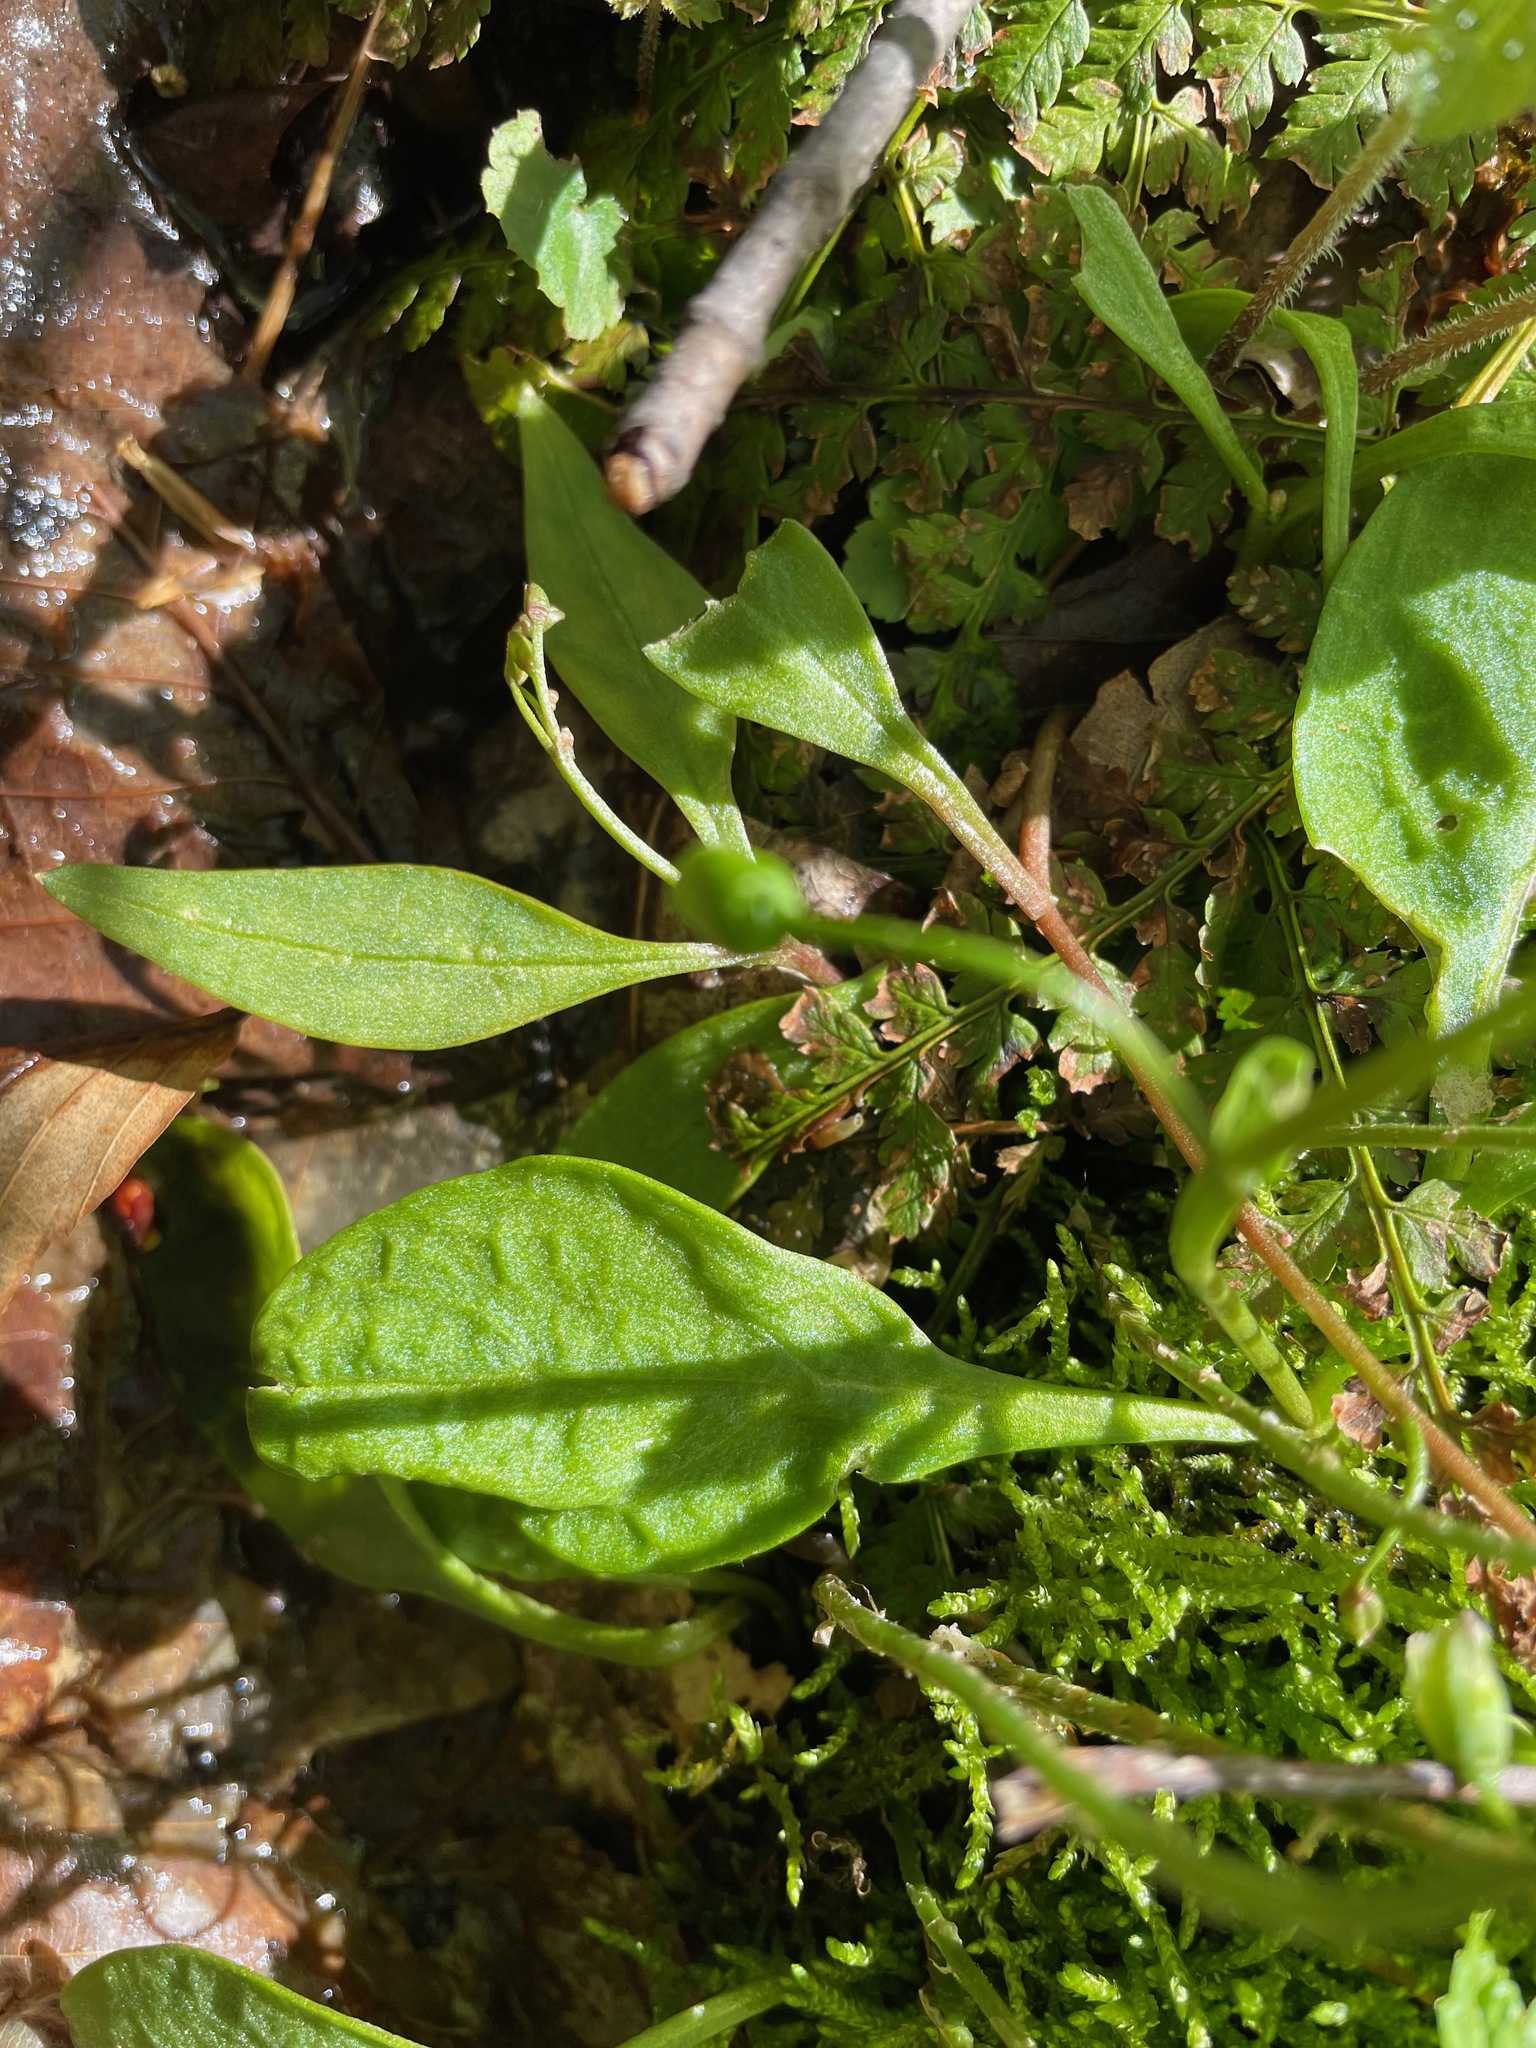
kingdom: Plantae
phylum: Tracheophyta
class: Magnoliopsida
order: Caryophyllales
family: Montiaceae
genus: Claytonia
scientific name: Claytonia caroliniana
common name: Carolina spring beauty
